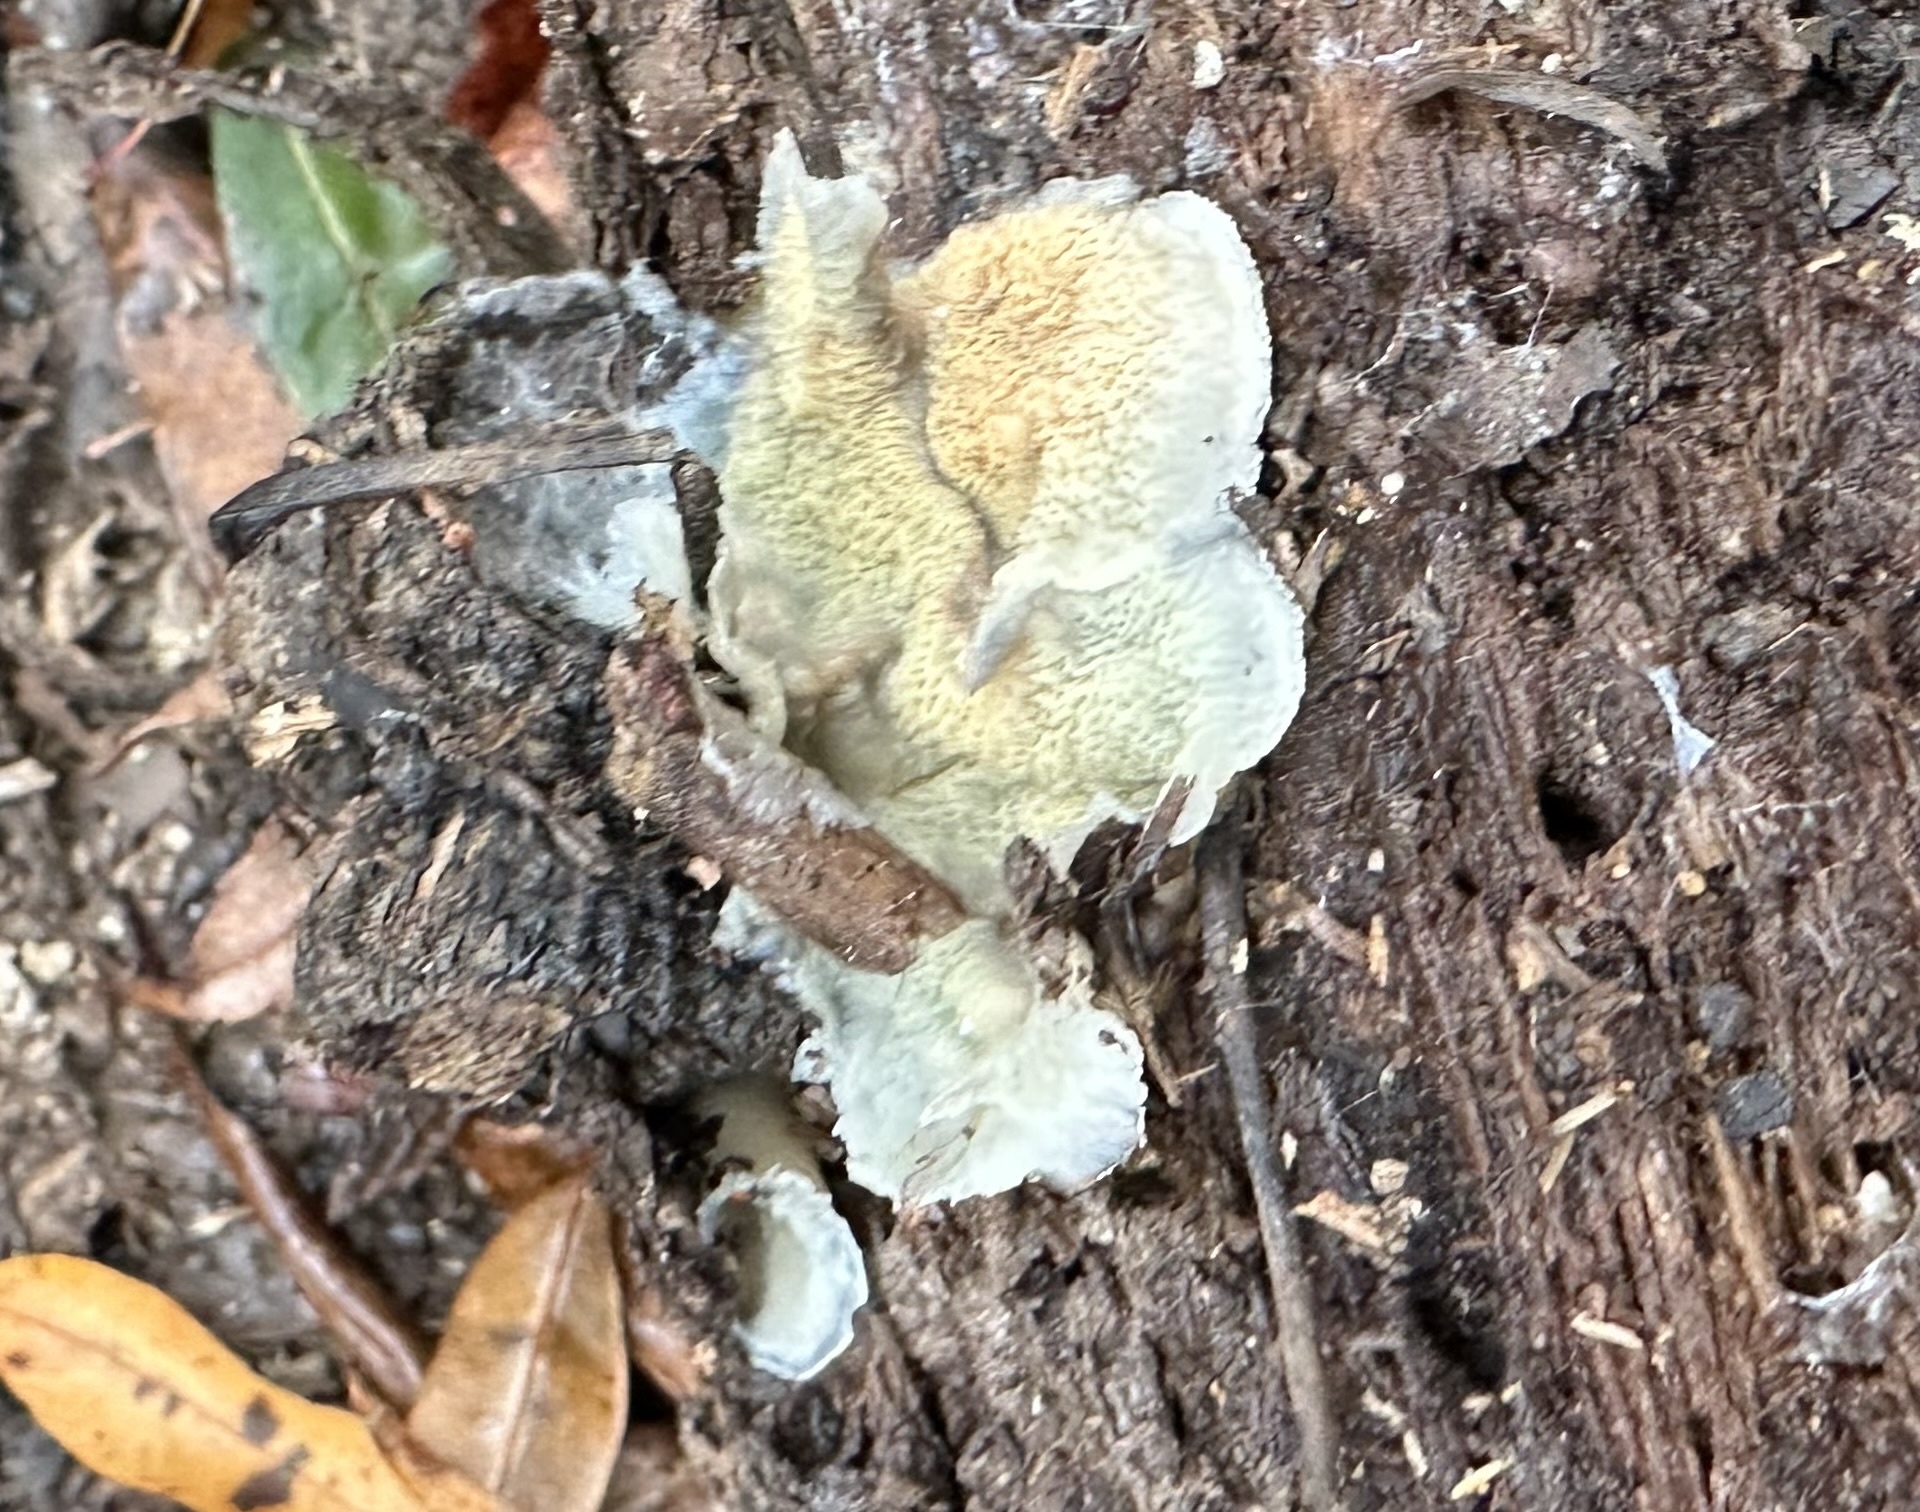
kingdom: Fungi
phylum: Basidiomycota
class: Agaricomycetes
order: Polyporales
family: Meruliaceae
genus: Phlebia
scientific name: Phlebia tremellosa
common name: Jelly rot
